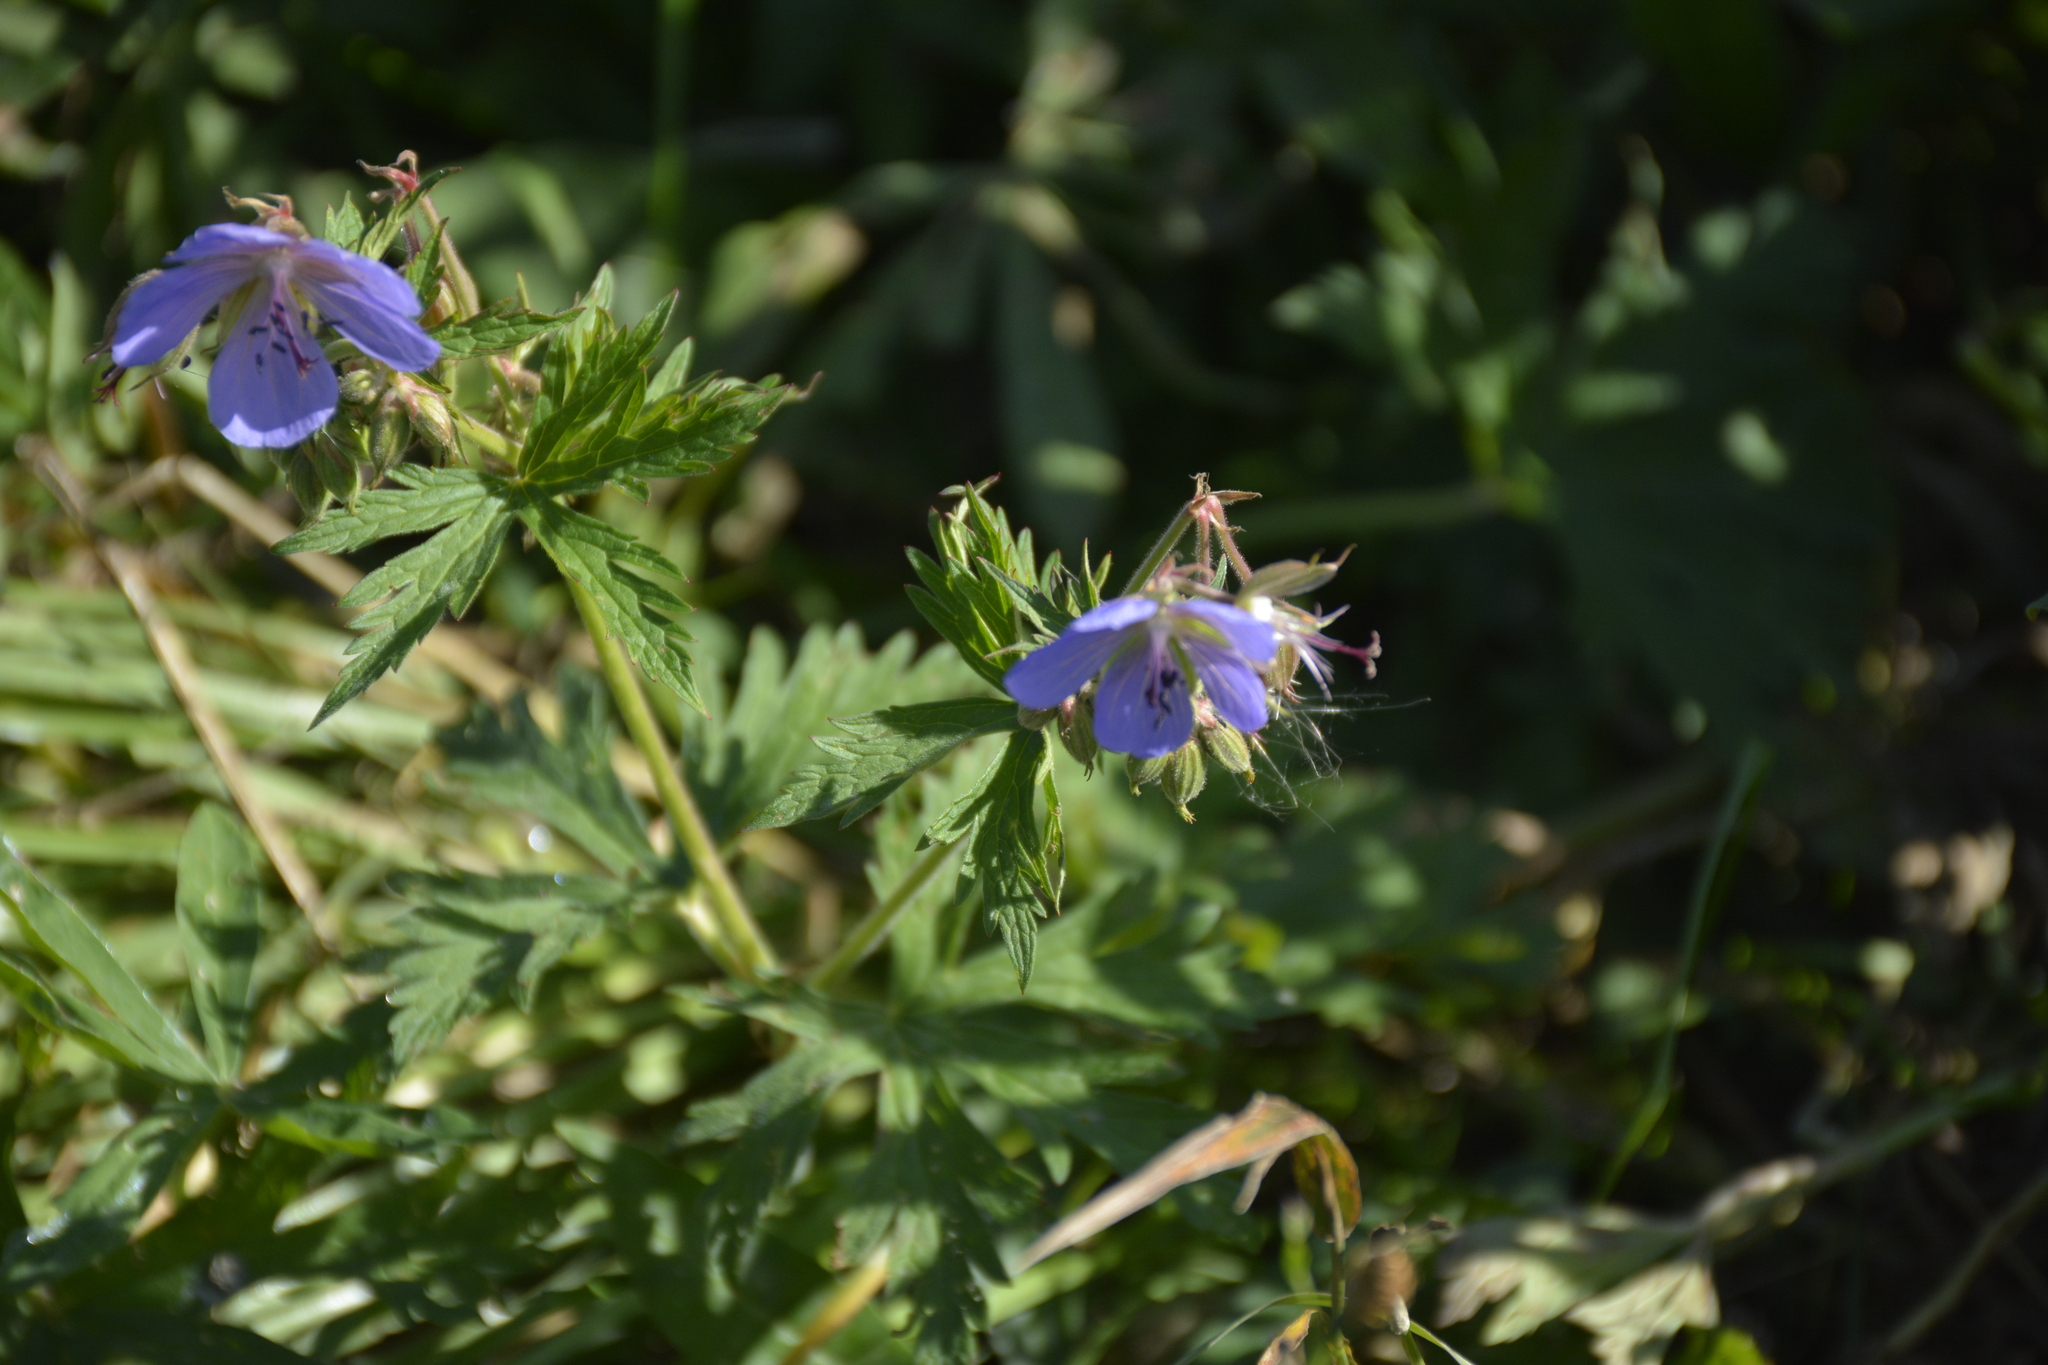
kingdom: Plantae
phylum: Tracheophyta
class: Magnoliopsida
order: Geraniales
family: Geraniaceae
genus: Geranium
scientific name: Geranium pratense
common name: Meadow crane's-bill
